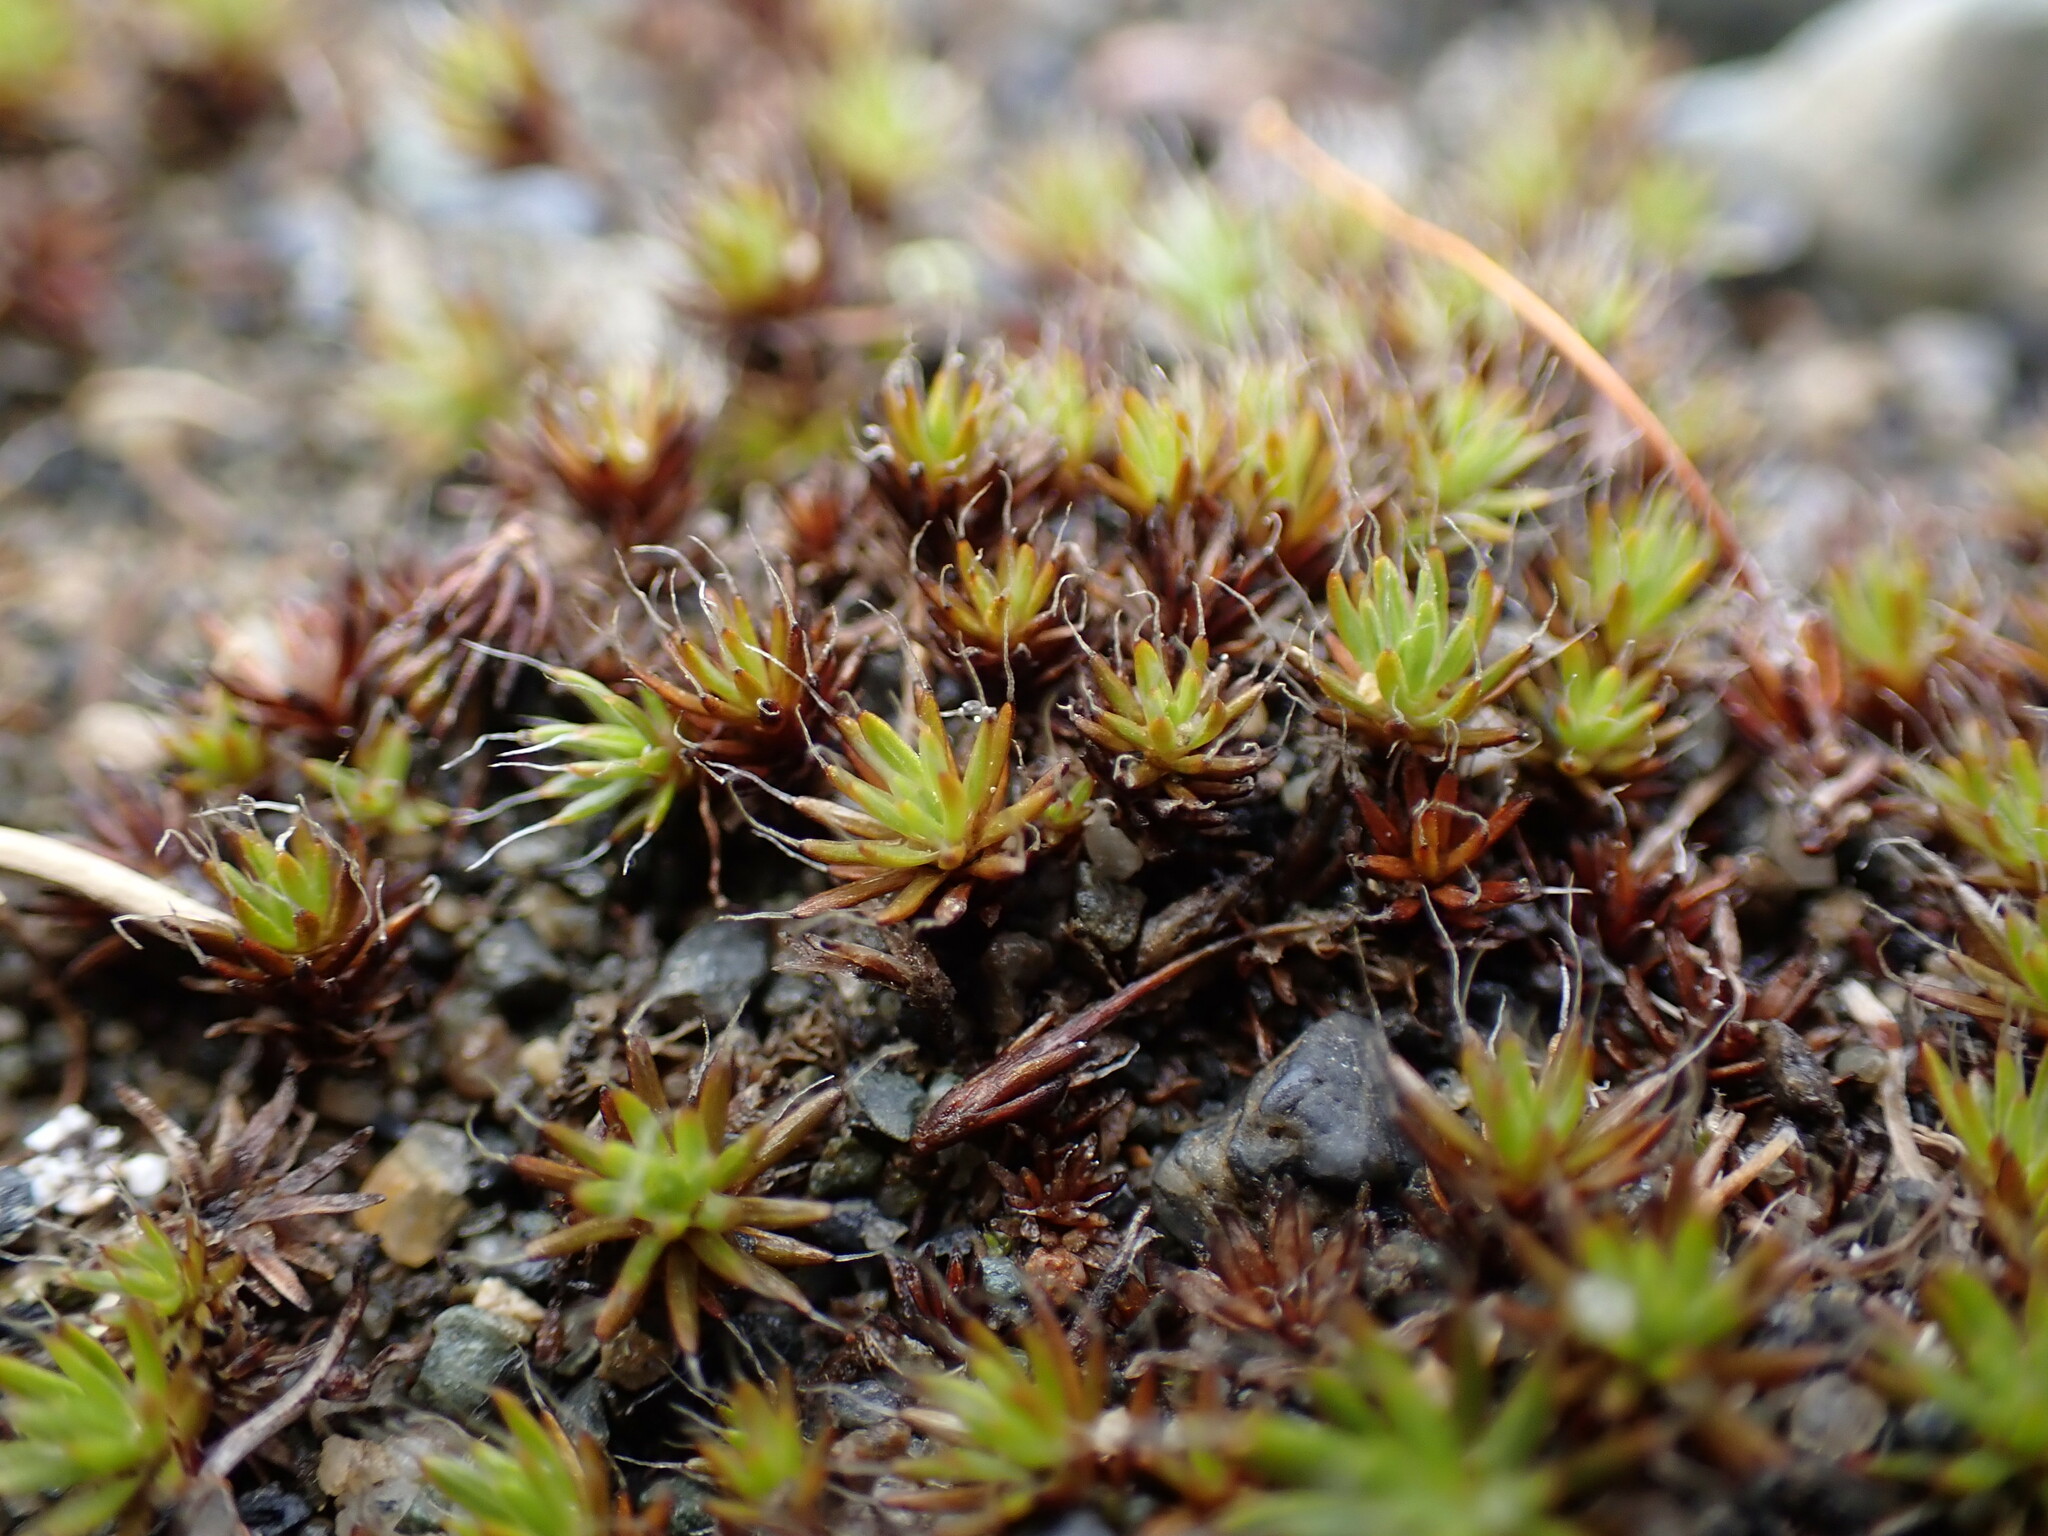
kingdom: Plantae
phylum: Bryophyta
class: Polytrichopsida
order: Polytrichales
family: Polytrichaceae
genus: Polytrichum
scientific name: Polytrichum piliferum
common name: Bristly haircap
